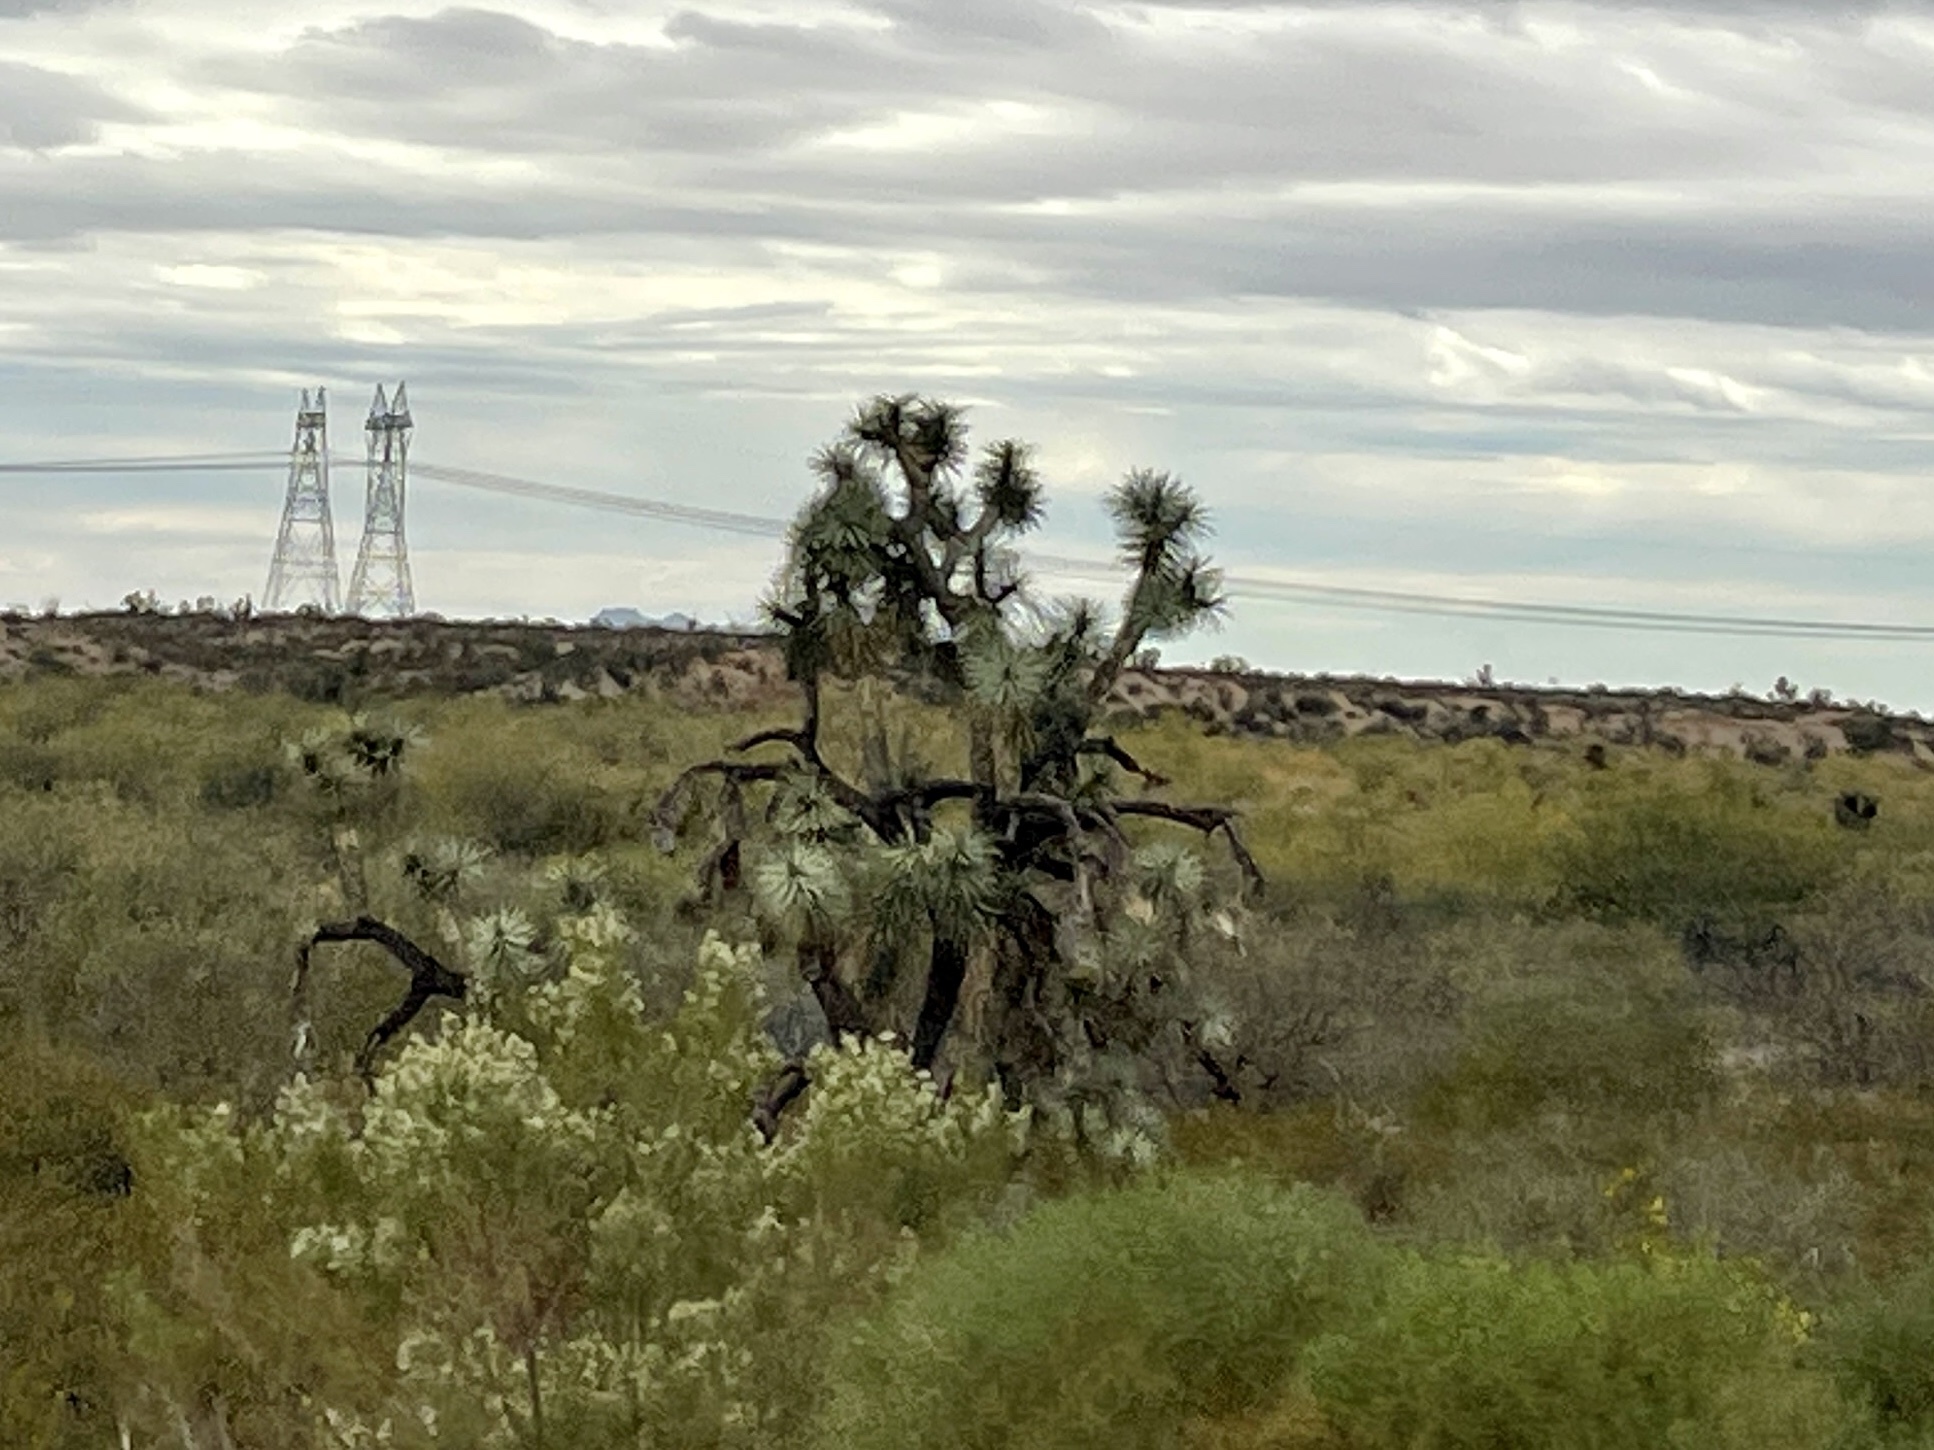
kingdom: Plantae
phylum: Tracheophyta
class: Liliopsida
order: Asparagales
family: Asparagaceae
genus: Yucca
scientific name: Yucca brevifolia
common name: Joshua tree
